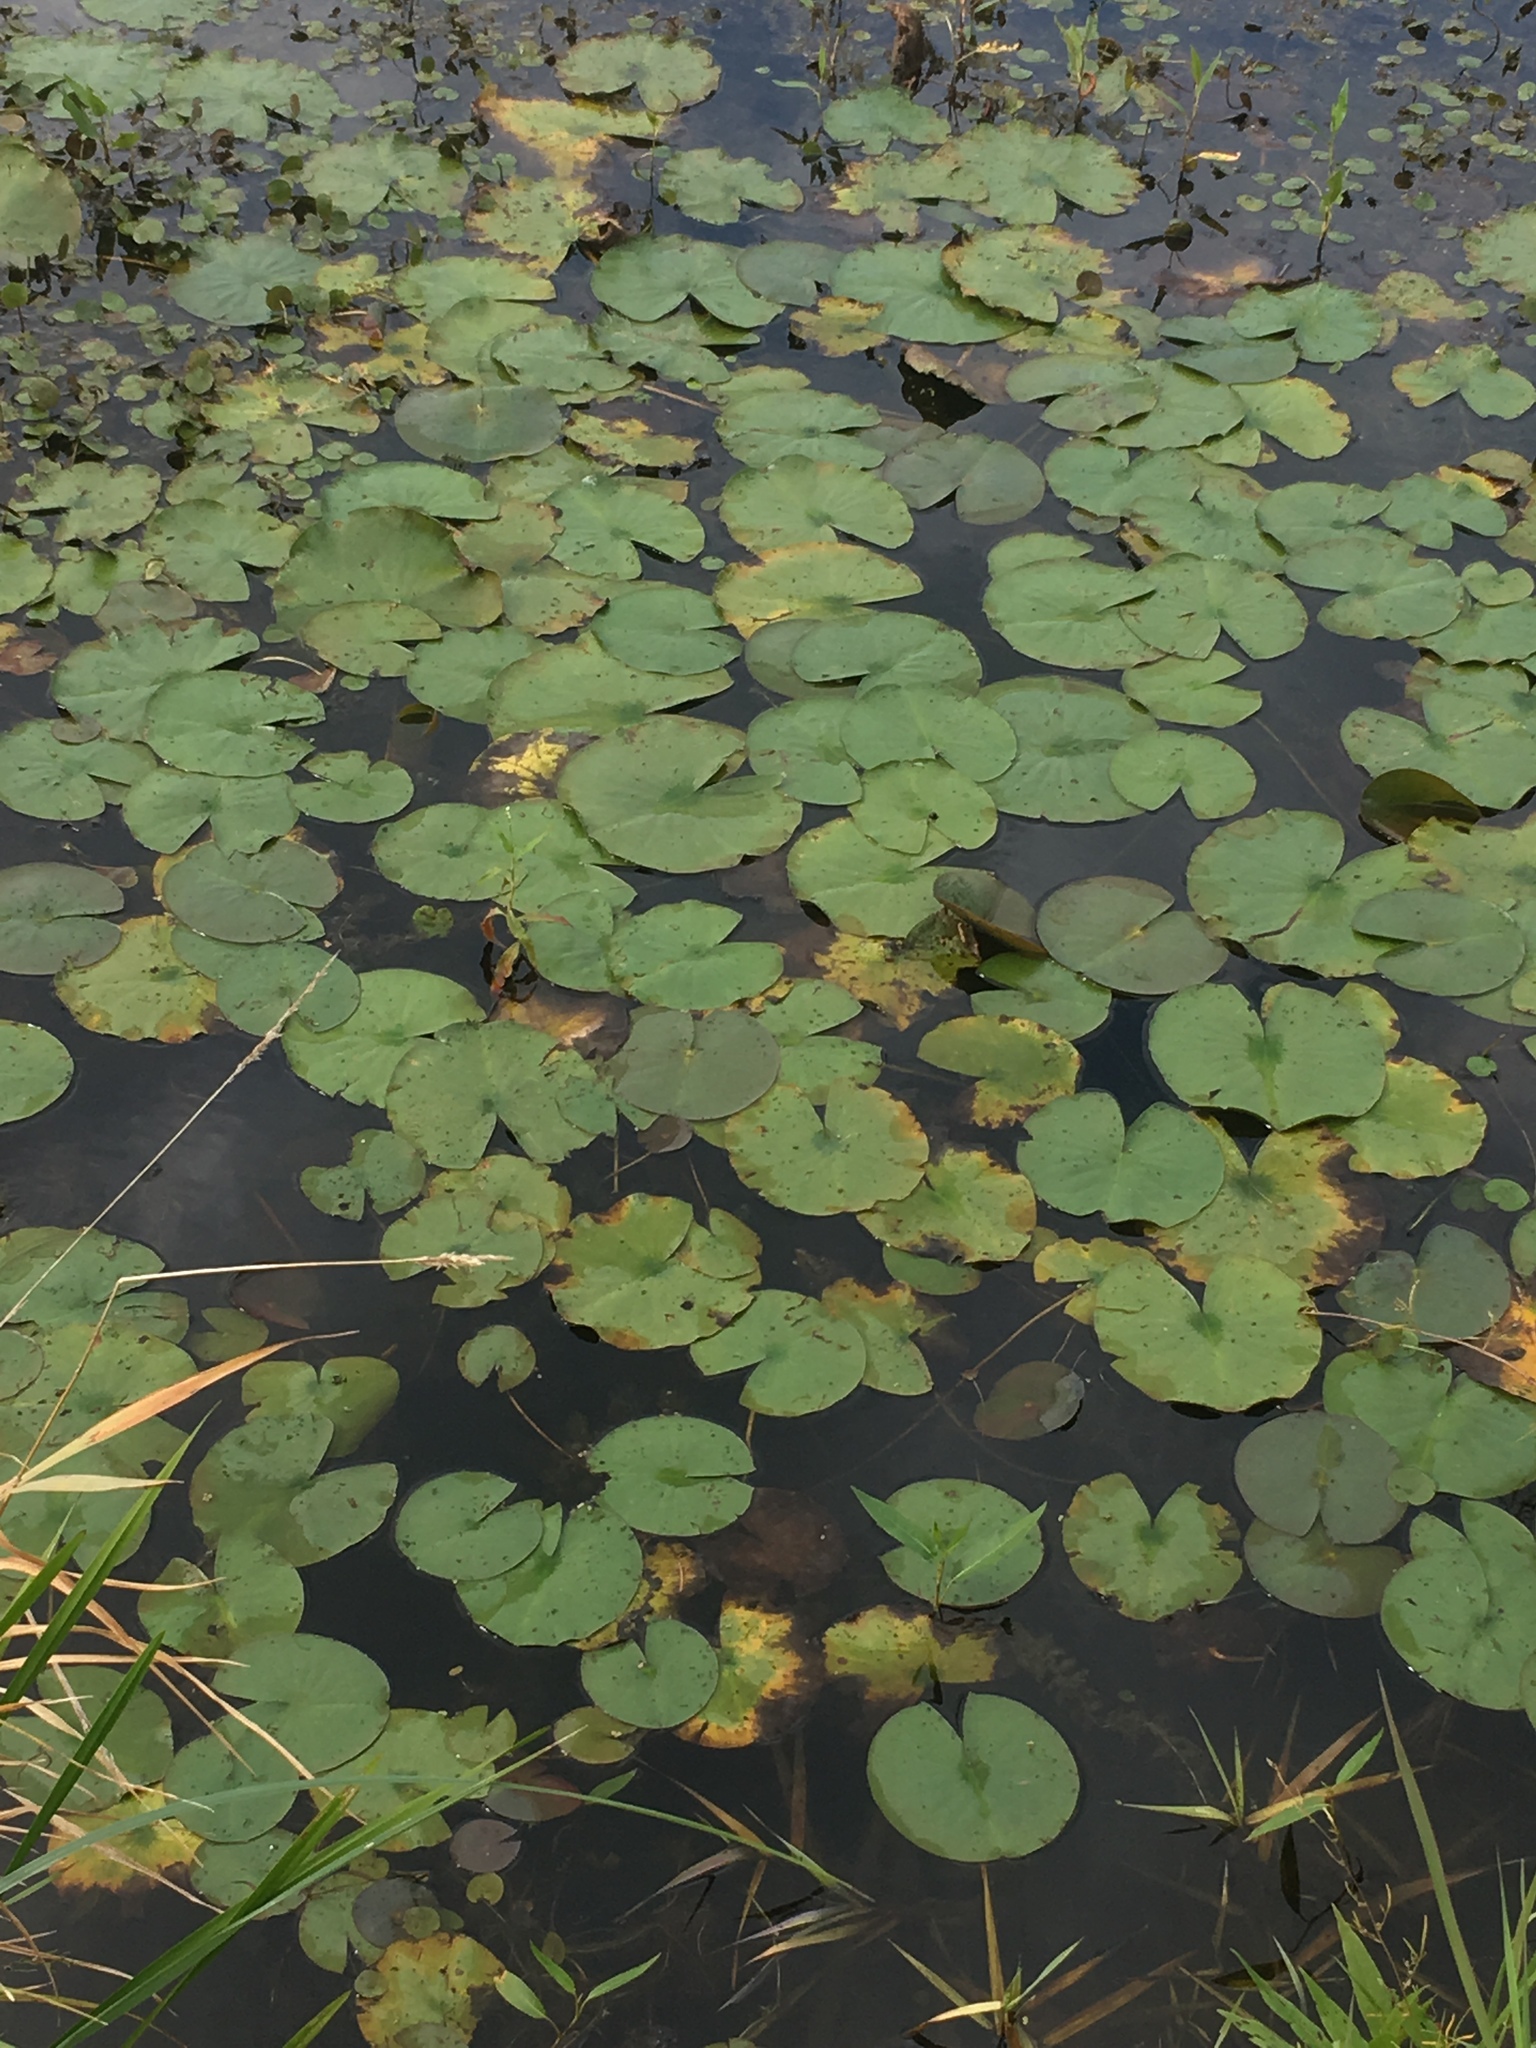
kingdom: Plantae
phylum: Tracheophyta
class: Magnoliopsida
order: Nymphaeales
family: Nymphaeaceae
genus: Nymphaea
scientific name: Nymphaea odorata
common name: Fragrant water-lily
